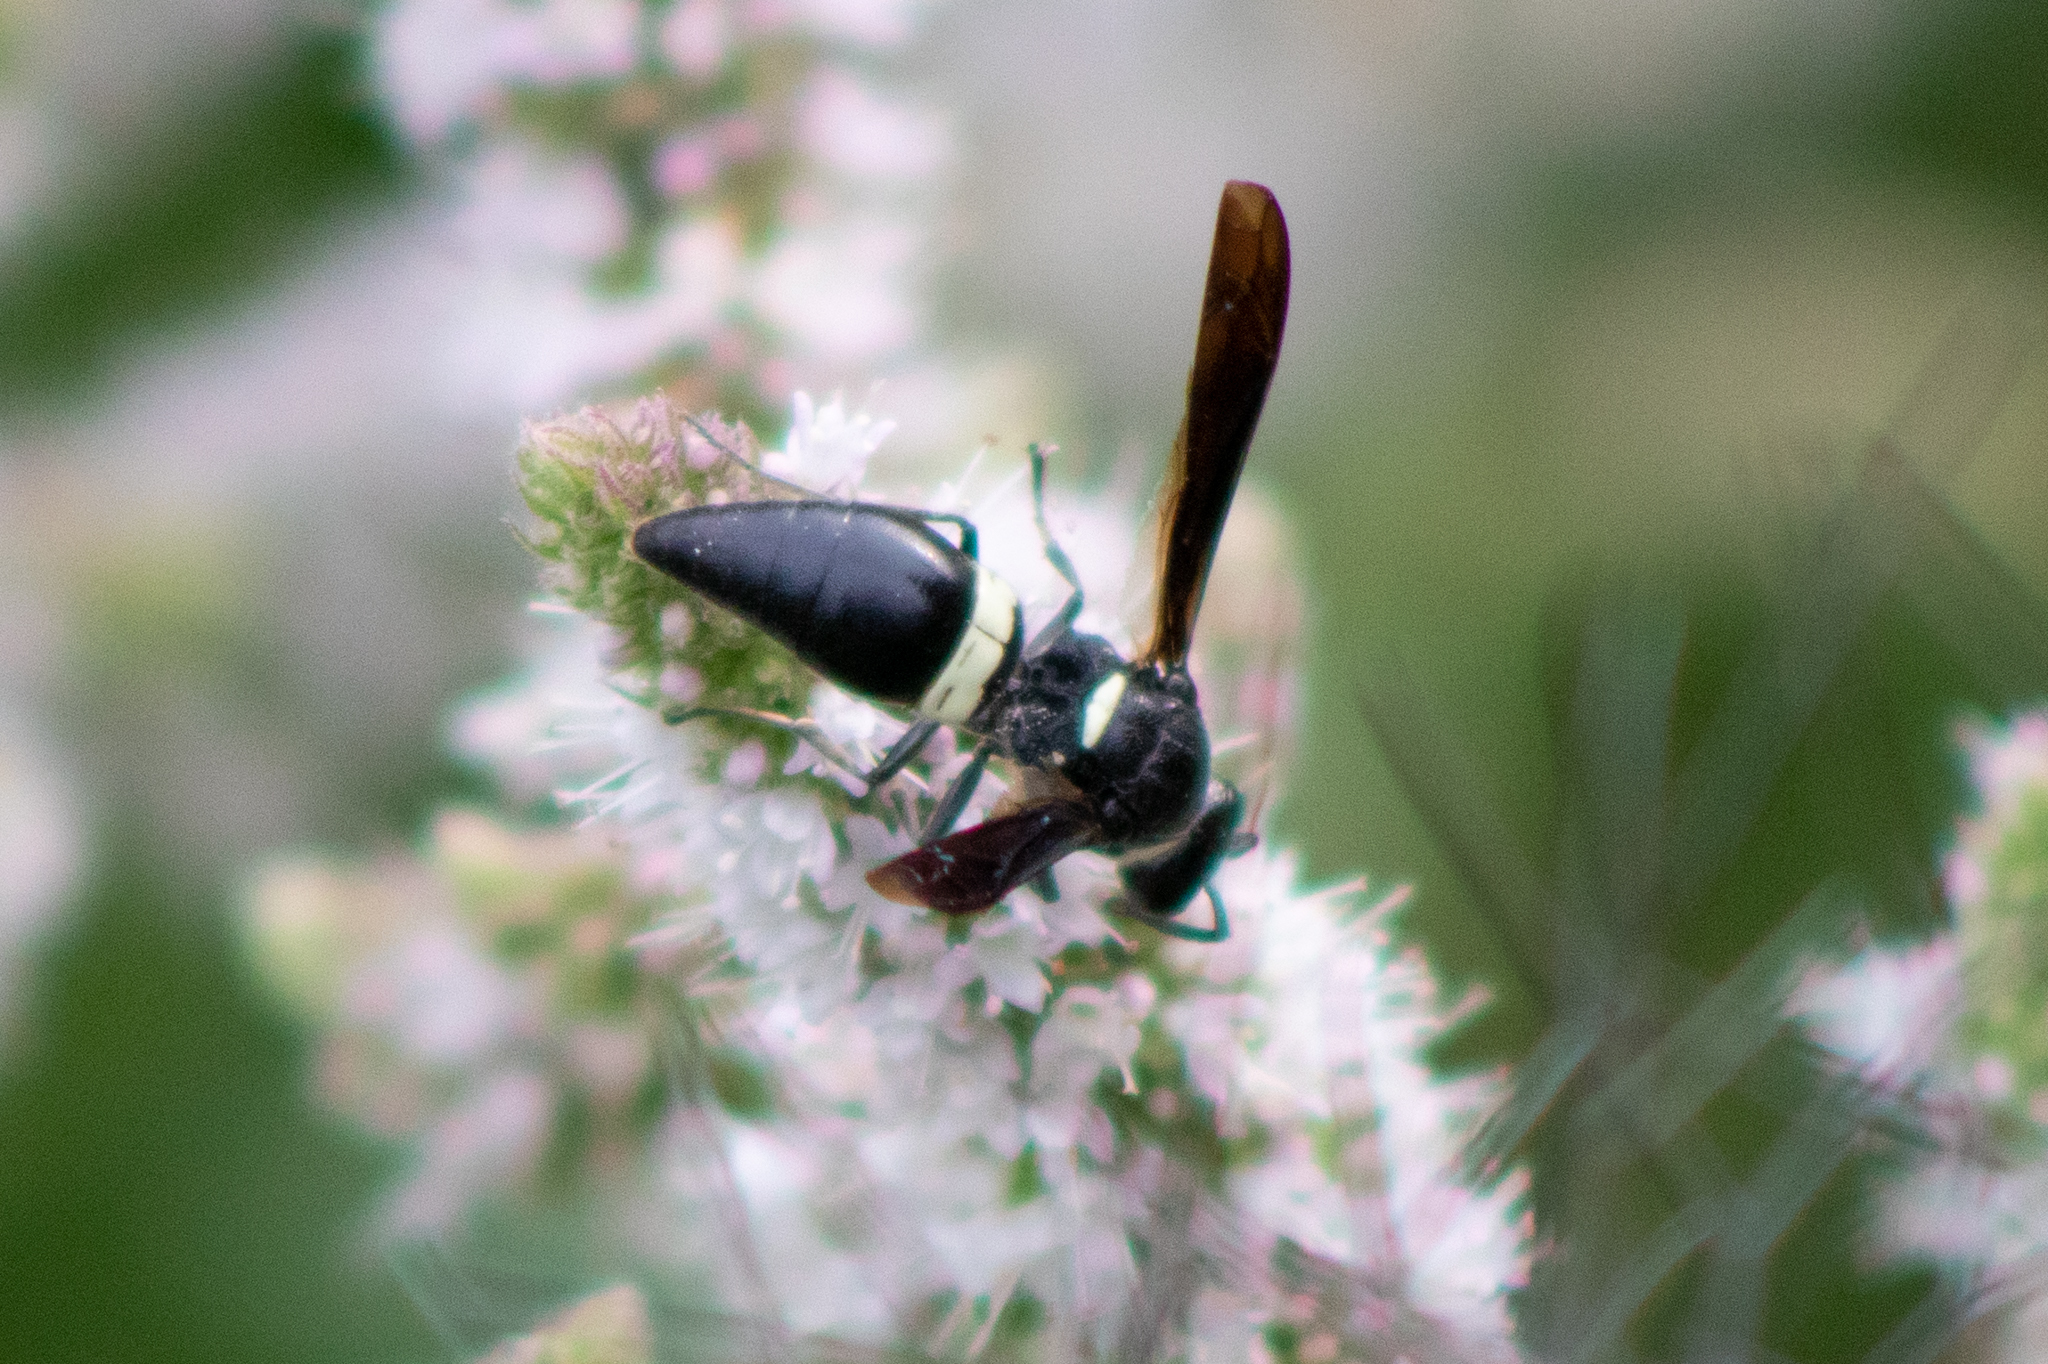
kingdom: Animalia
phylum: Arthropoda
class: Insecta
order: Hymenoptera
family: Eumenidae
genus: Monobia
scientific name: Monobia quadridens
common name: Four-toothed mason wasp
